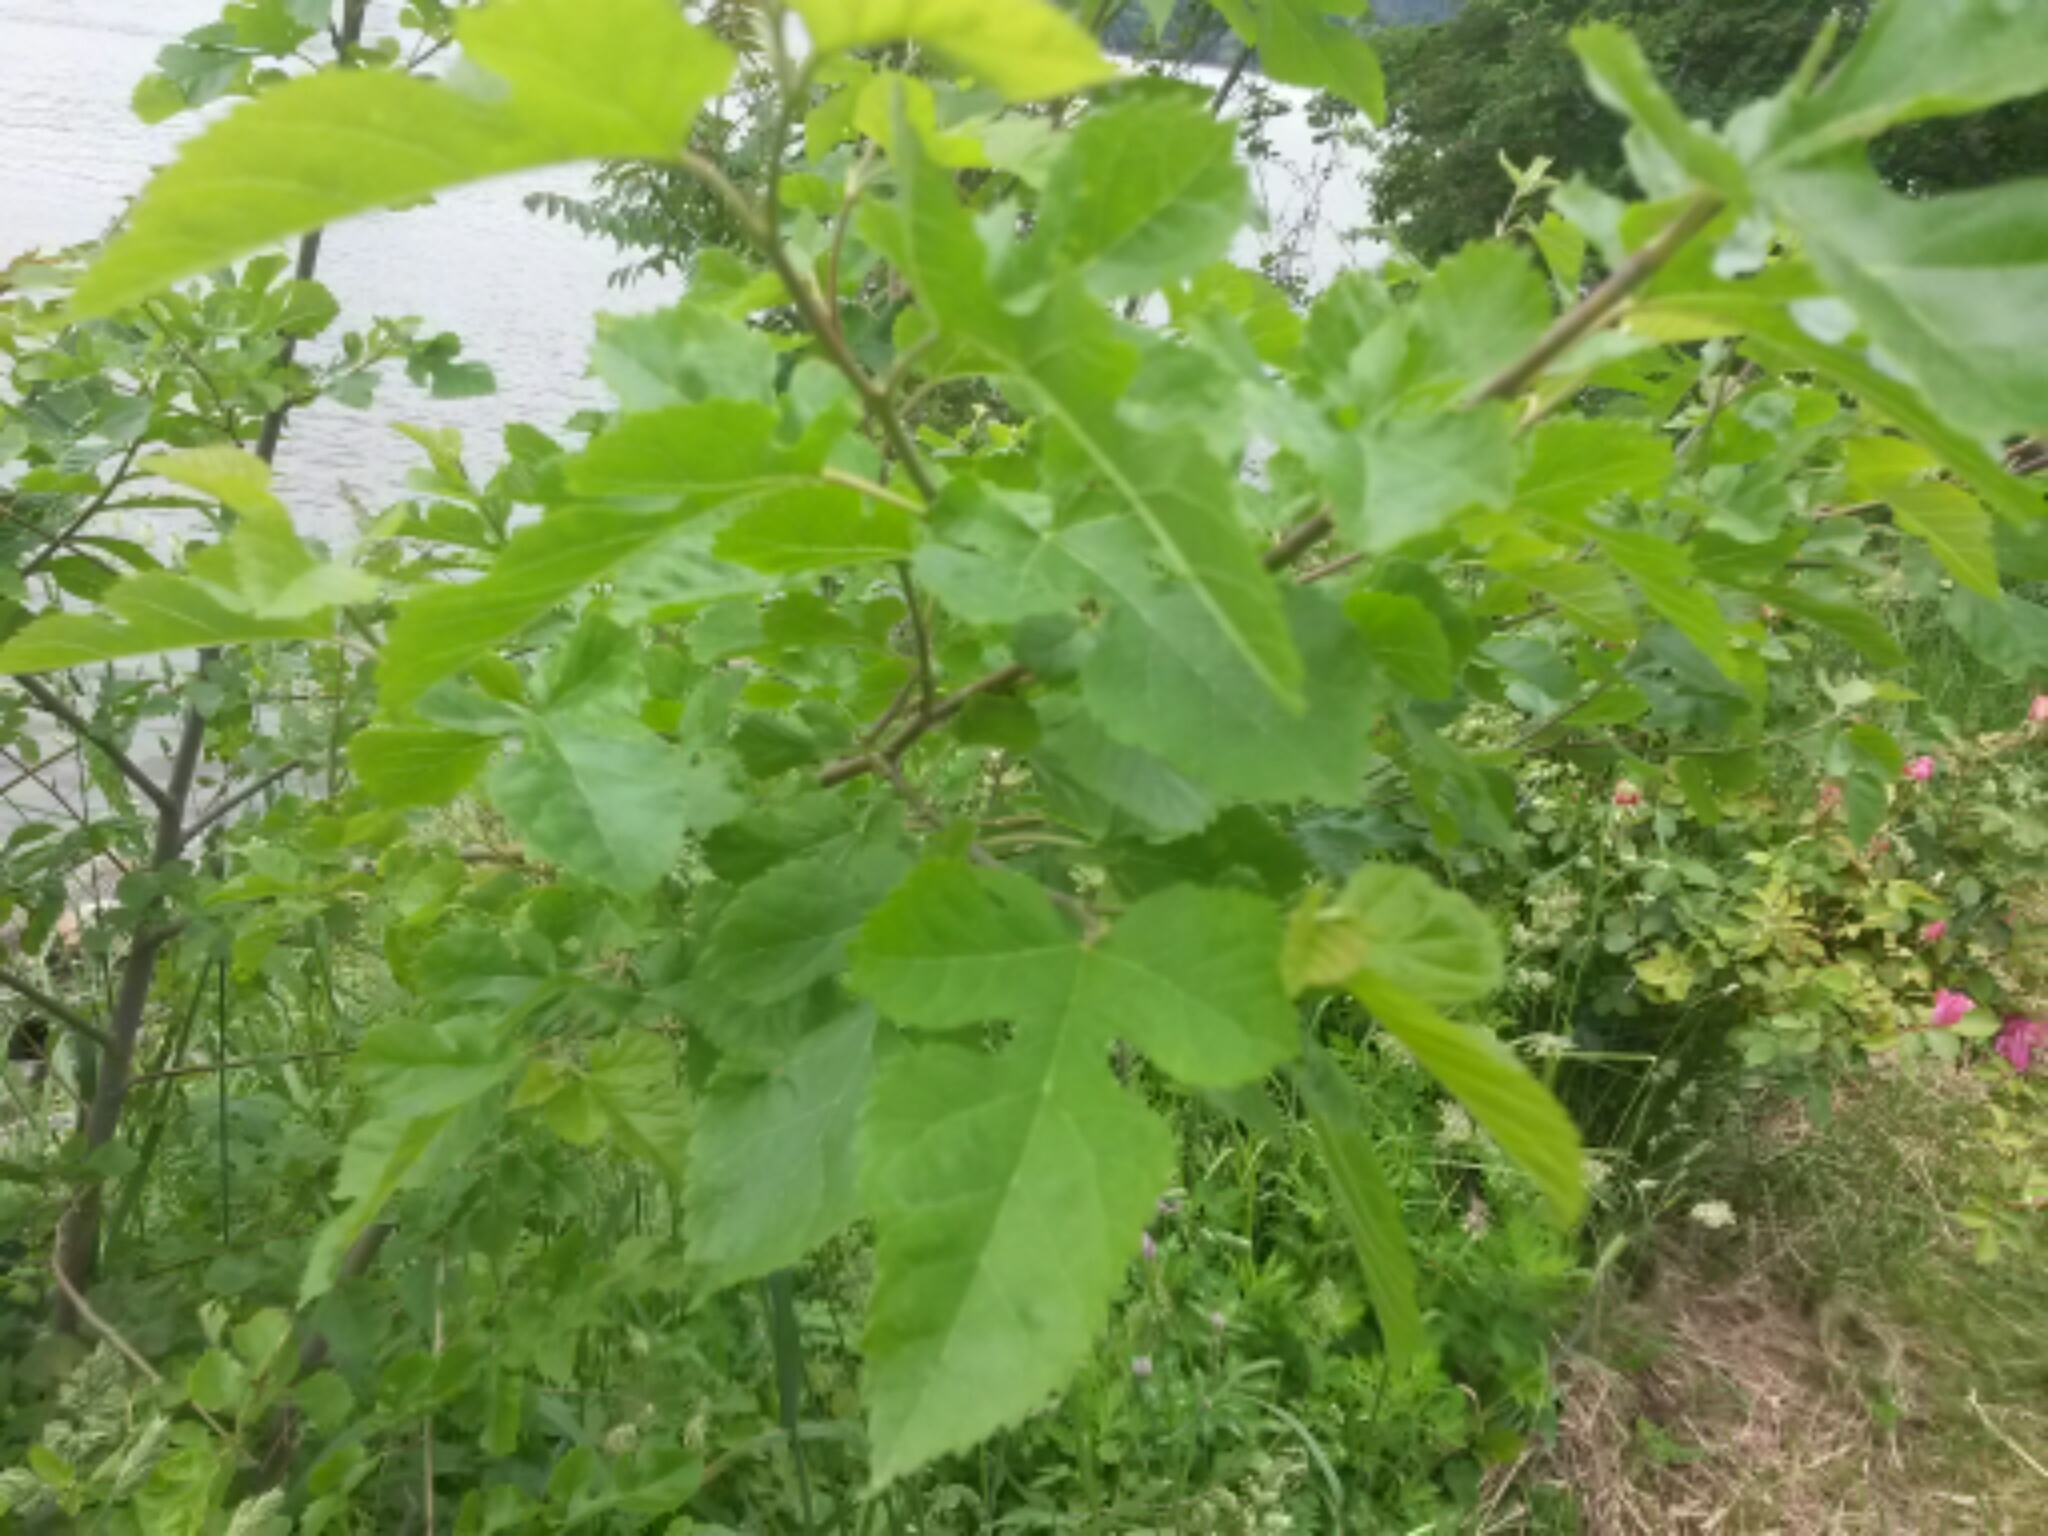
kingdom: Plantae
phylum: Tracheophyta
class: Magnoliopsida
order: Rosales
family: Moraceae
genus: Morus
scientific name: Morus alba
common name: White mulberry
